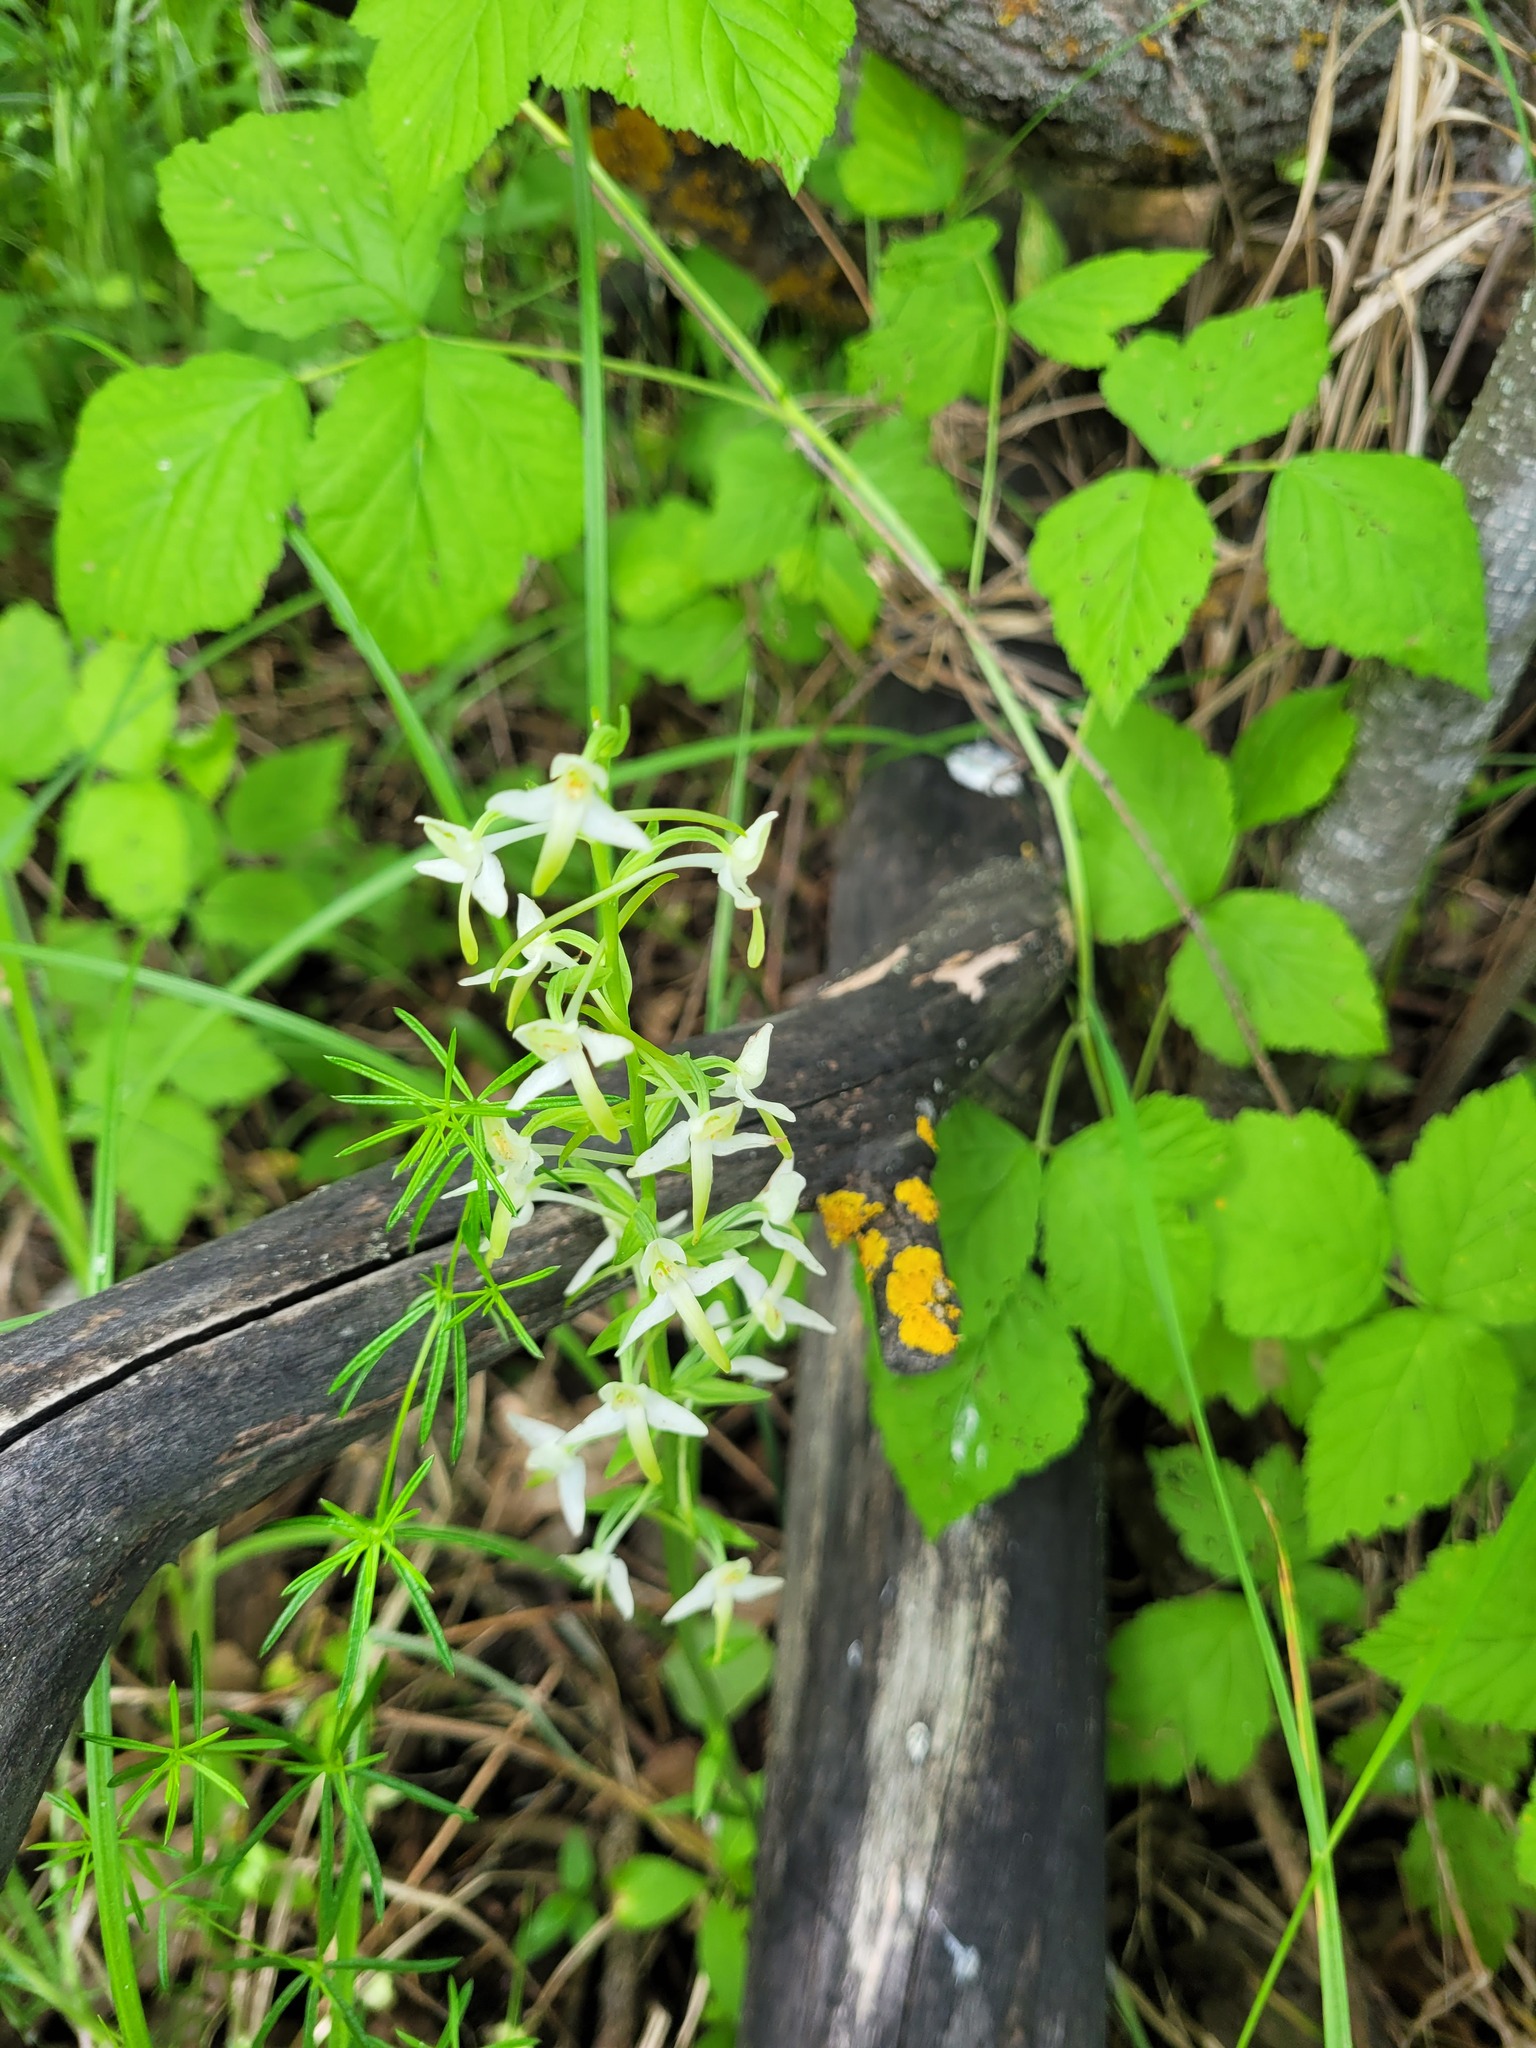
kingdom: Plantae
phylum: Tracheophyta
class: Liliopsida
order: Asparagales
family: Orchidaceae
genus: Platanthera
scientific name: Platanthera bifolia
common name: Lesser butterfly-orchid
